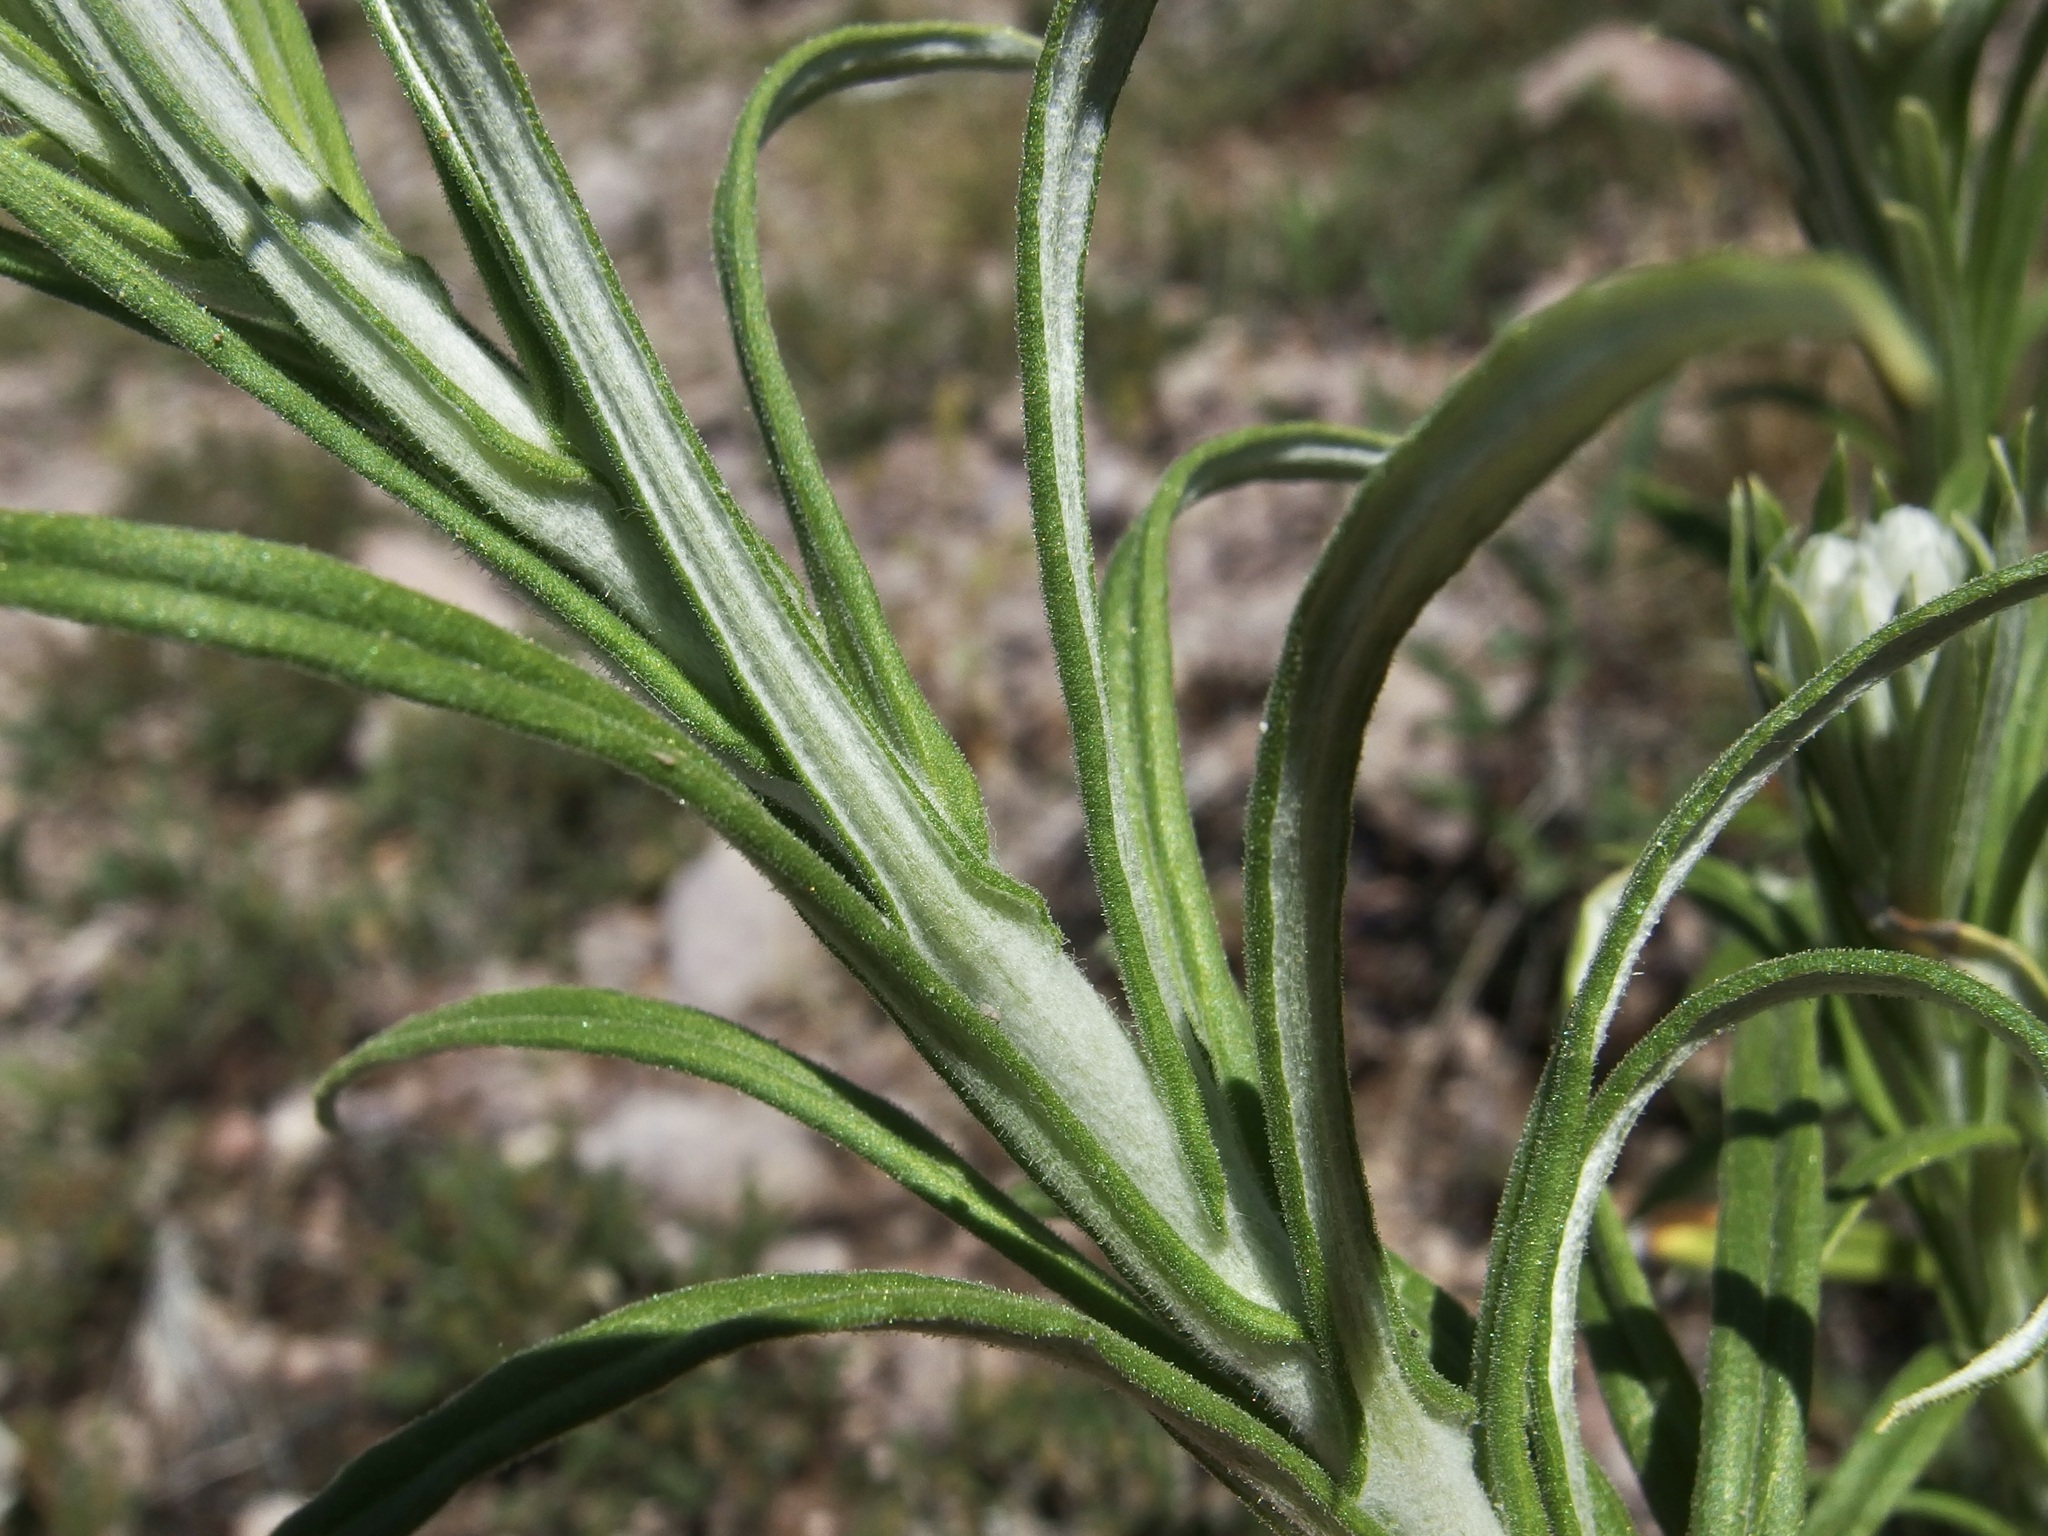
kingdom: Plantae
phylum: Tracheophyta
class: Magnoliopsida
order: Asterales
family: Asteraceae
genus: Pseudognaphalium
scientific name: Pseudognaphalium leucocephalum
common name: White cudweed
